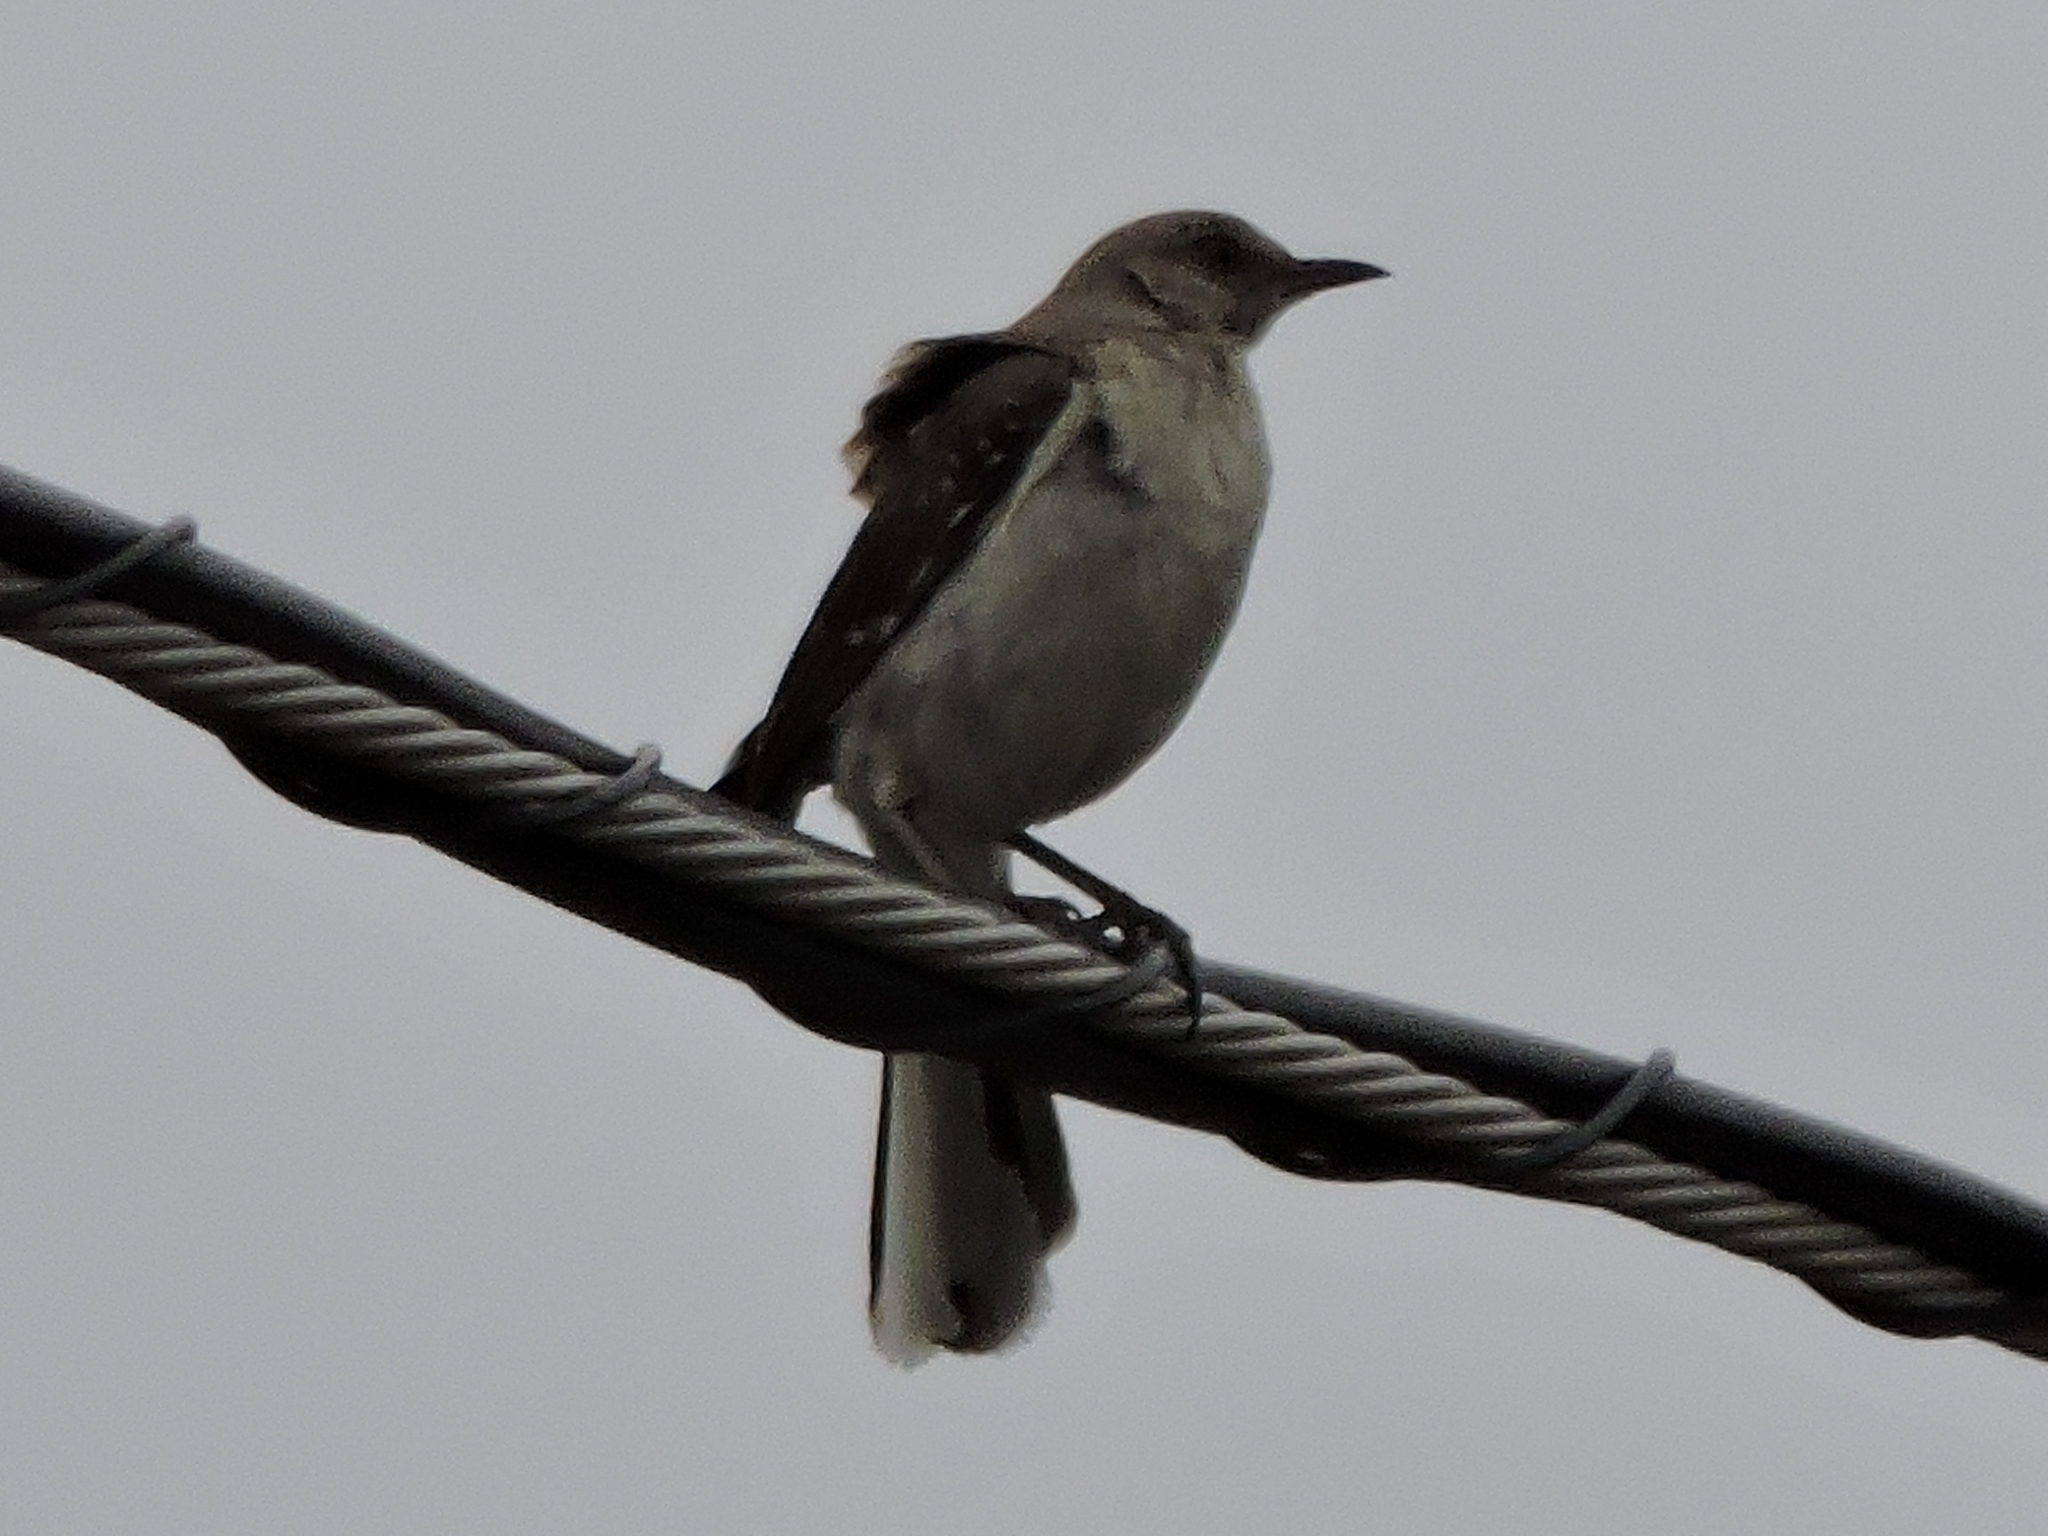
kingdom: Animalia
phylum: Chordata
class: Aves
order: Passeriformes
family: Mimidae
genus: Mimus
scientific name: Mimus polyglottos
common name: Northern mockingbird
